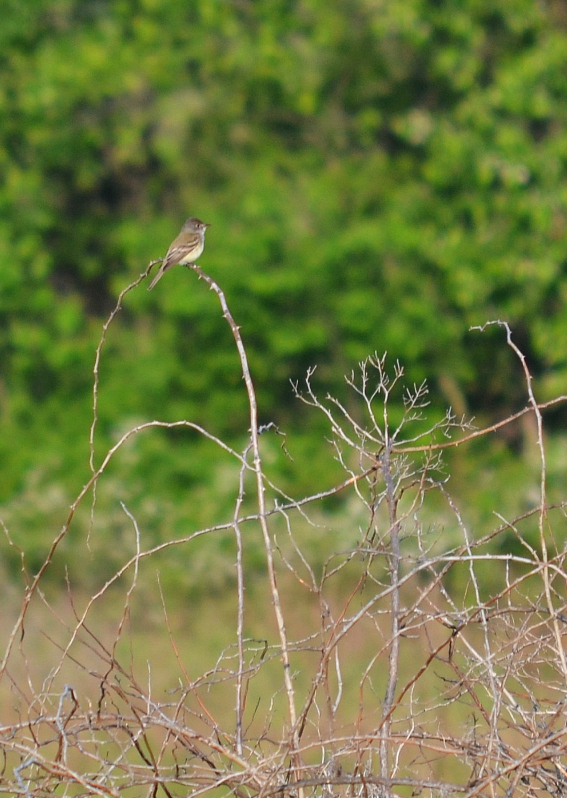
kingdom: Animalia
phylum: Chordata
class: Aves
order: Passeriformes
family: Tyrannidae
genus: Empidonax
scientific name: Empidonax minimus
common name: Least flycatcher
